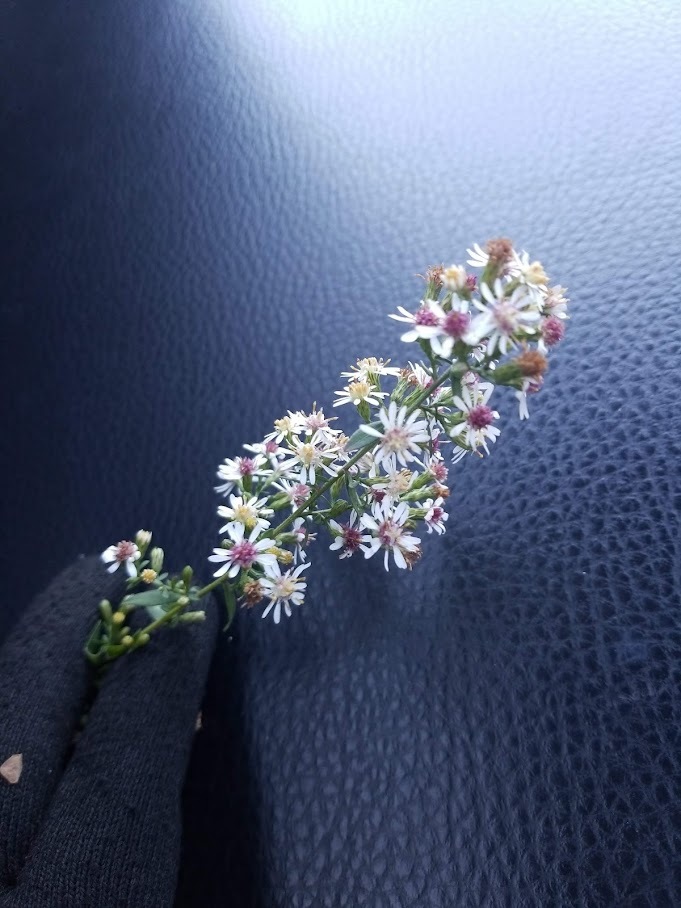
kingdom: Plantae
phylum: Tracheophyta
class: Magnoliopsida
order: Asterales
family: Asteraceae
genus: Symphyotrichum
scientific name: Symphyotrichum lateriflorum
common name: Calico aster
